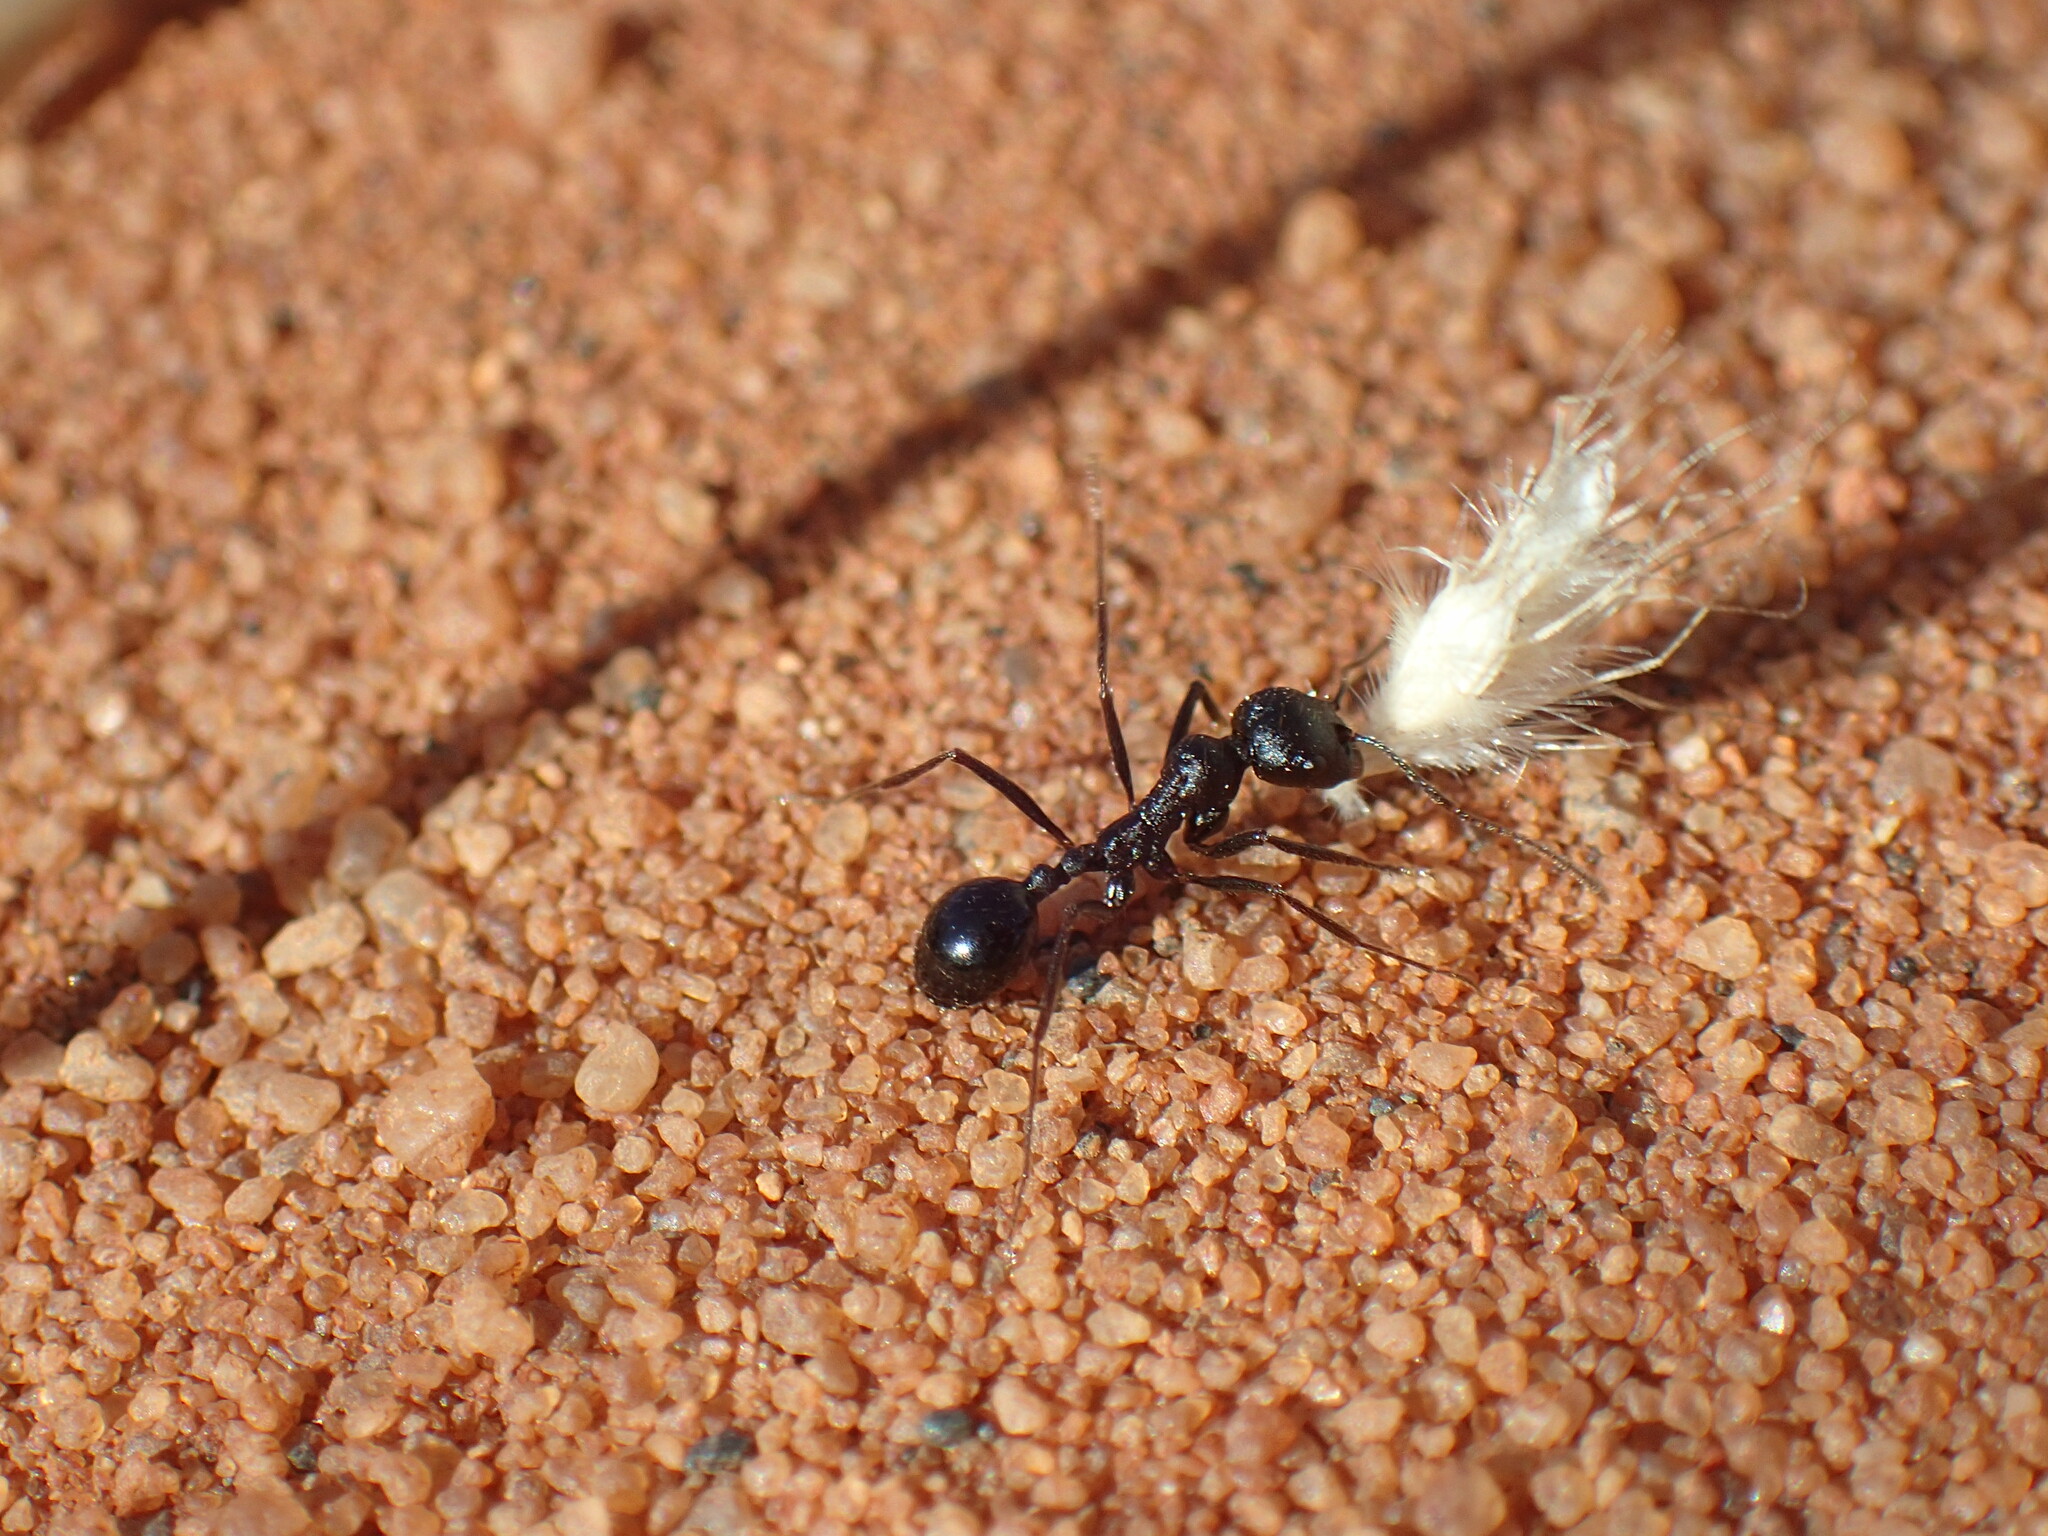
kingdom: Animalia
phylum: Arthropoda
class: Insecta
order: Hymenoptera
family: Formicidae
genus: Messor
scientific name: Messor striatifrons
